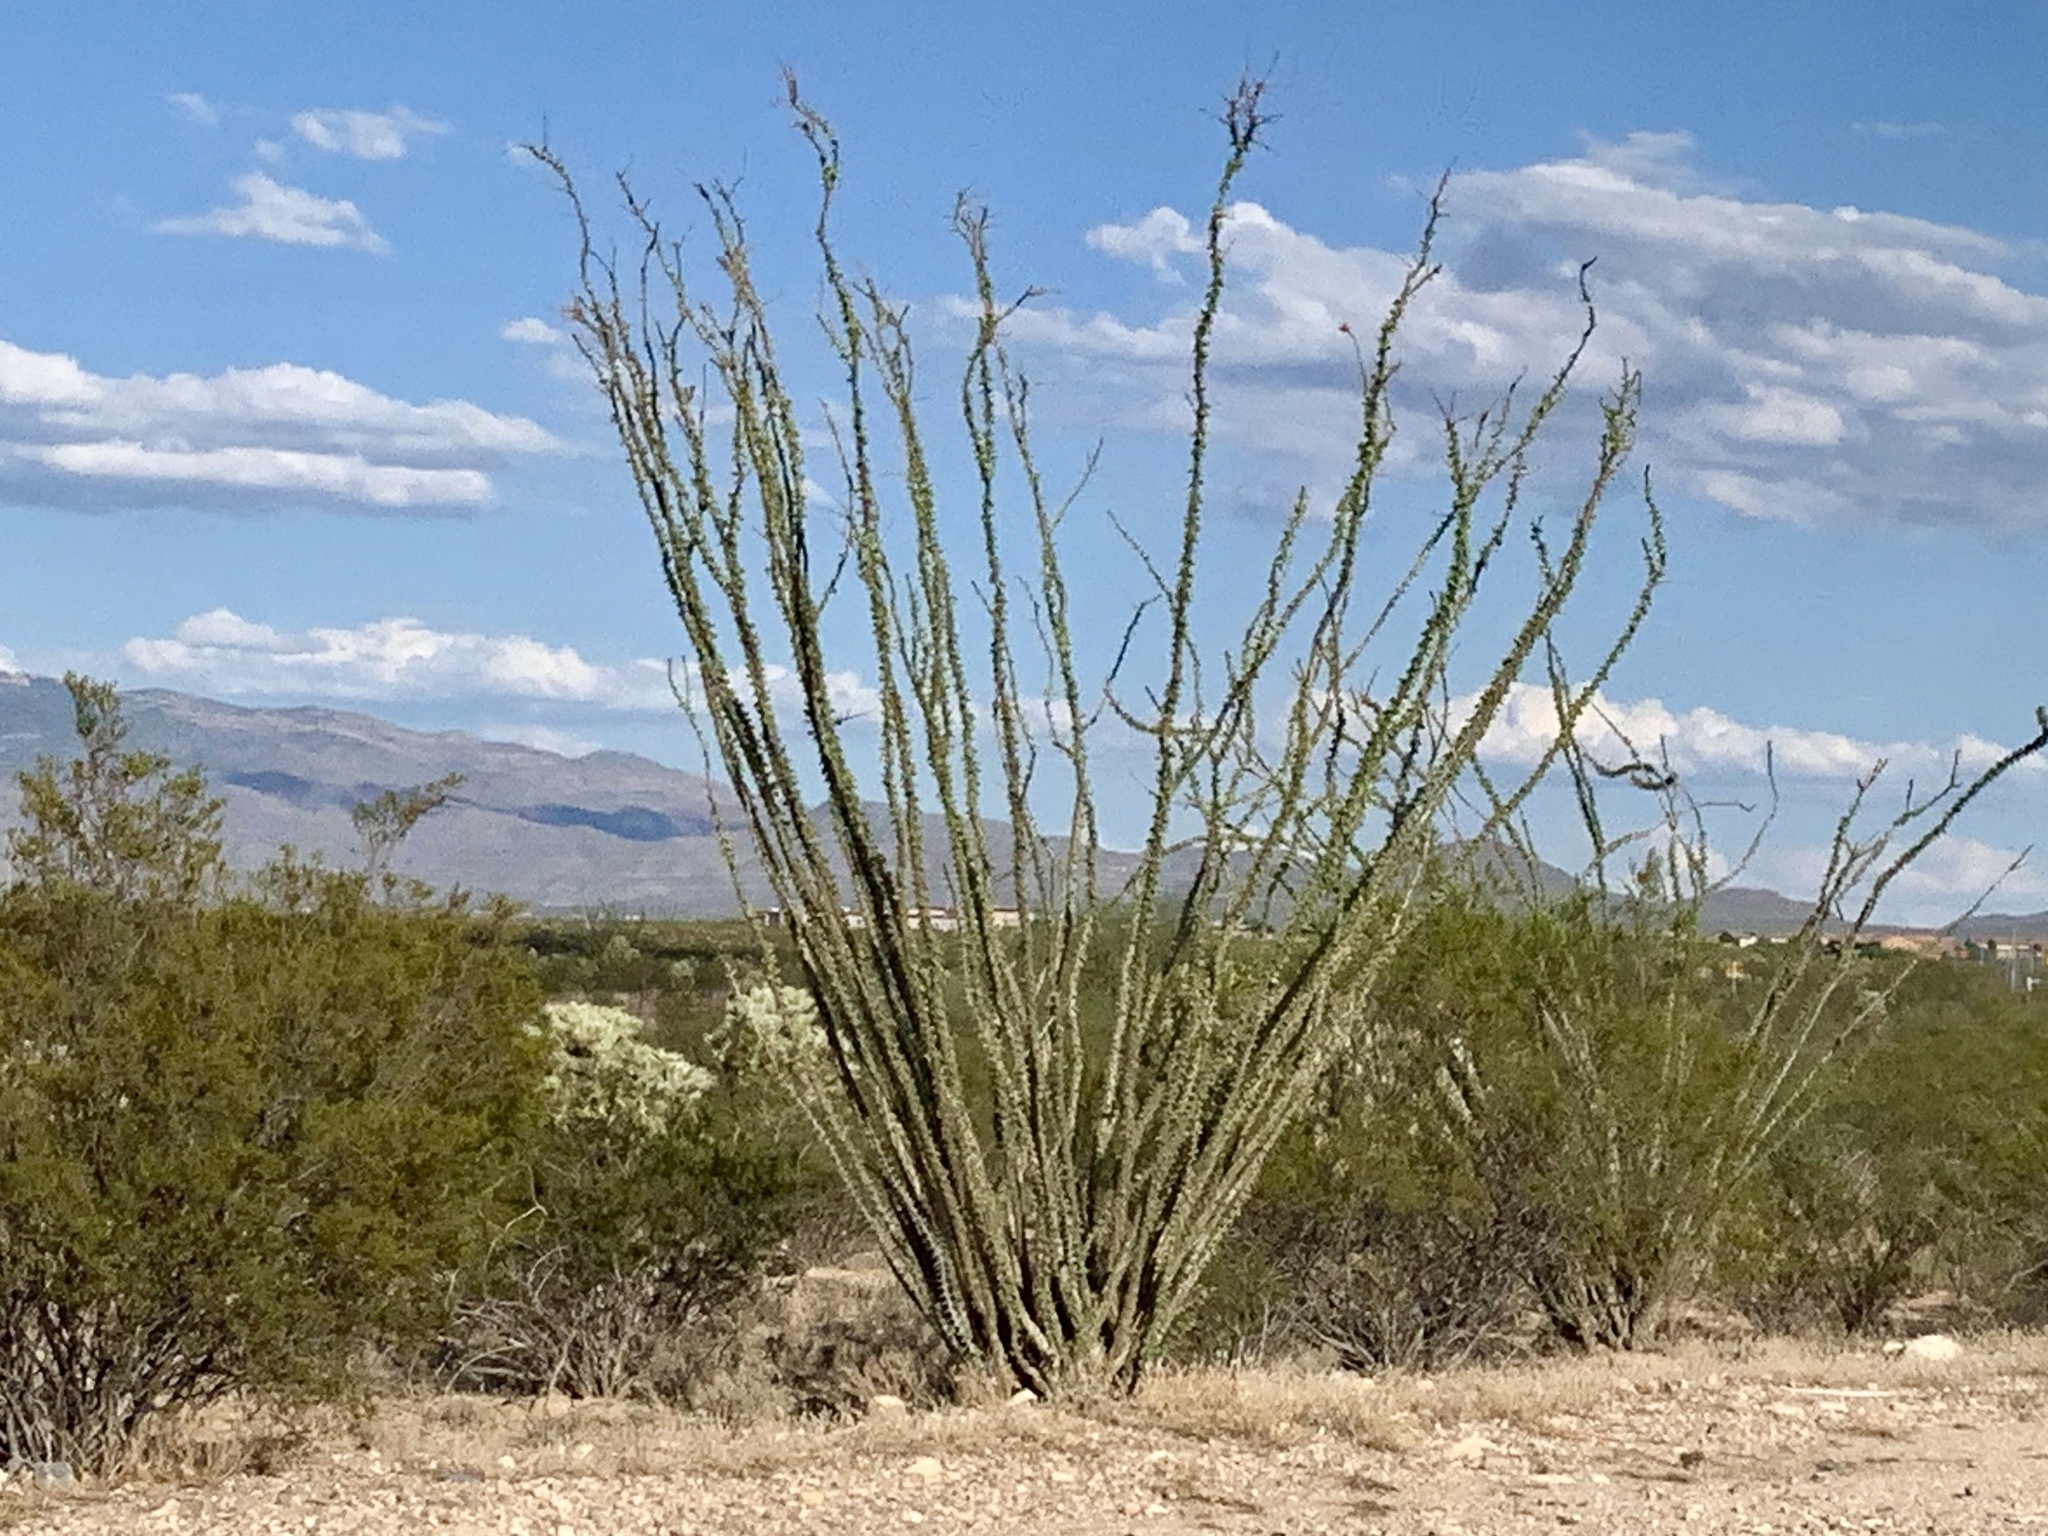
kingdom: Plantae
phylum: Tracheophyta
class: Magnoliopsida
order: Ericales
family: Fouquieriaceae
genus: Fouquieria
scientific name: Fouquieria splendens
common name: Vine-cactus
